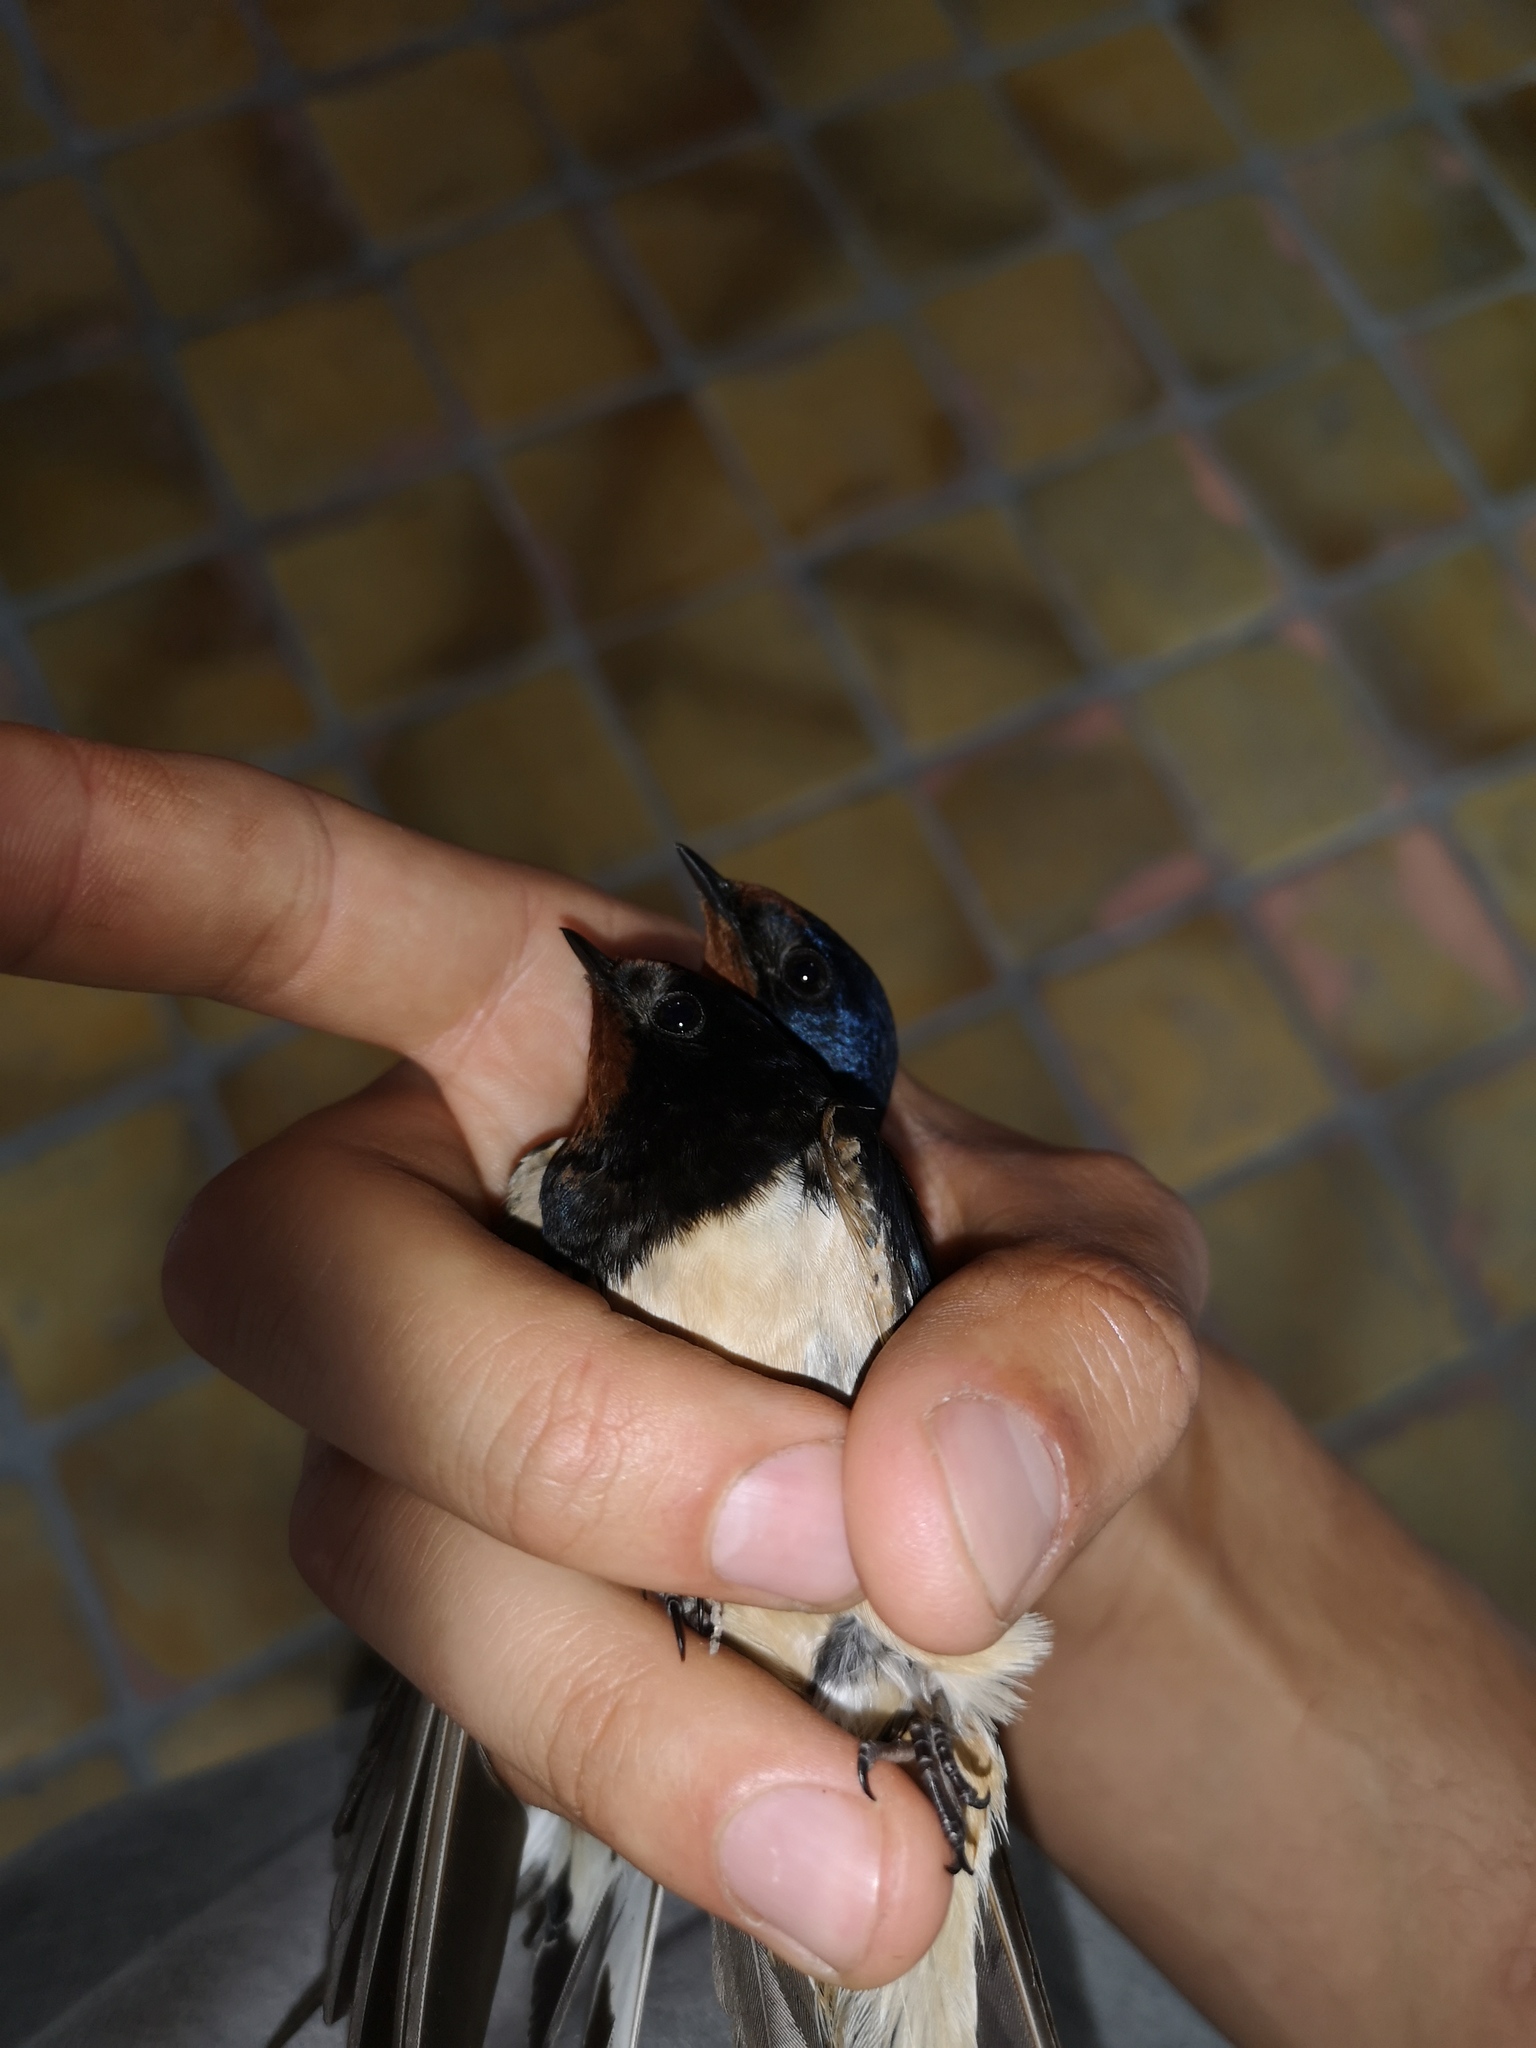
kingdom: Animalia
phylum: Chordata
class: Aves
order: Passeriformes
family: Hirundinidae
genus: Hirundo
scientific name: Hirundo rustica
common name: Barn swallow
